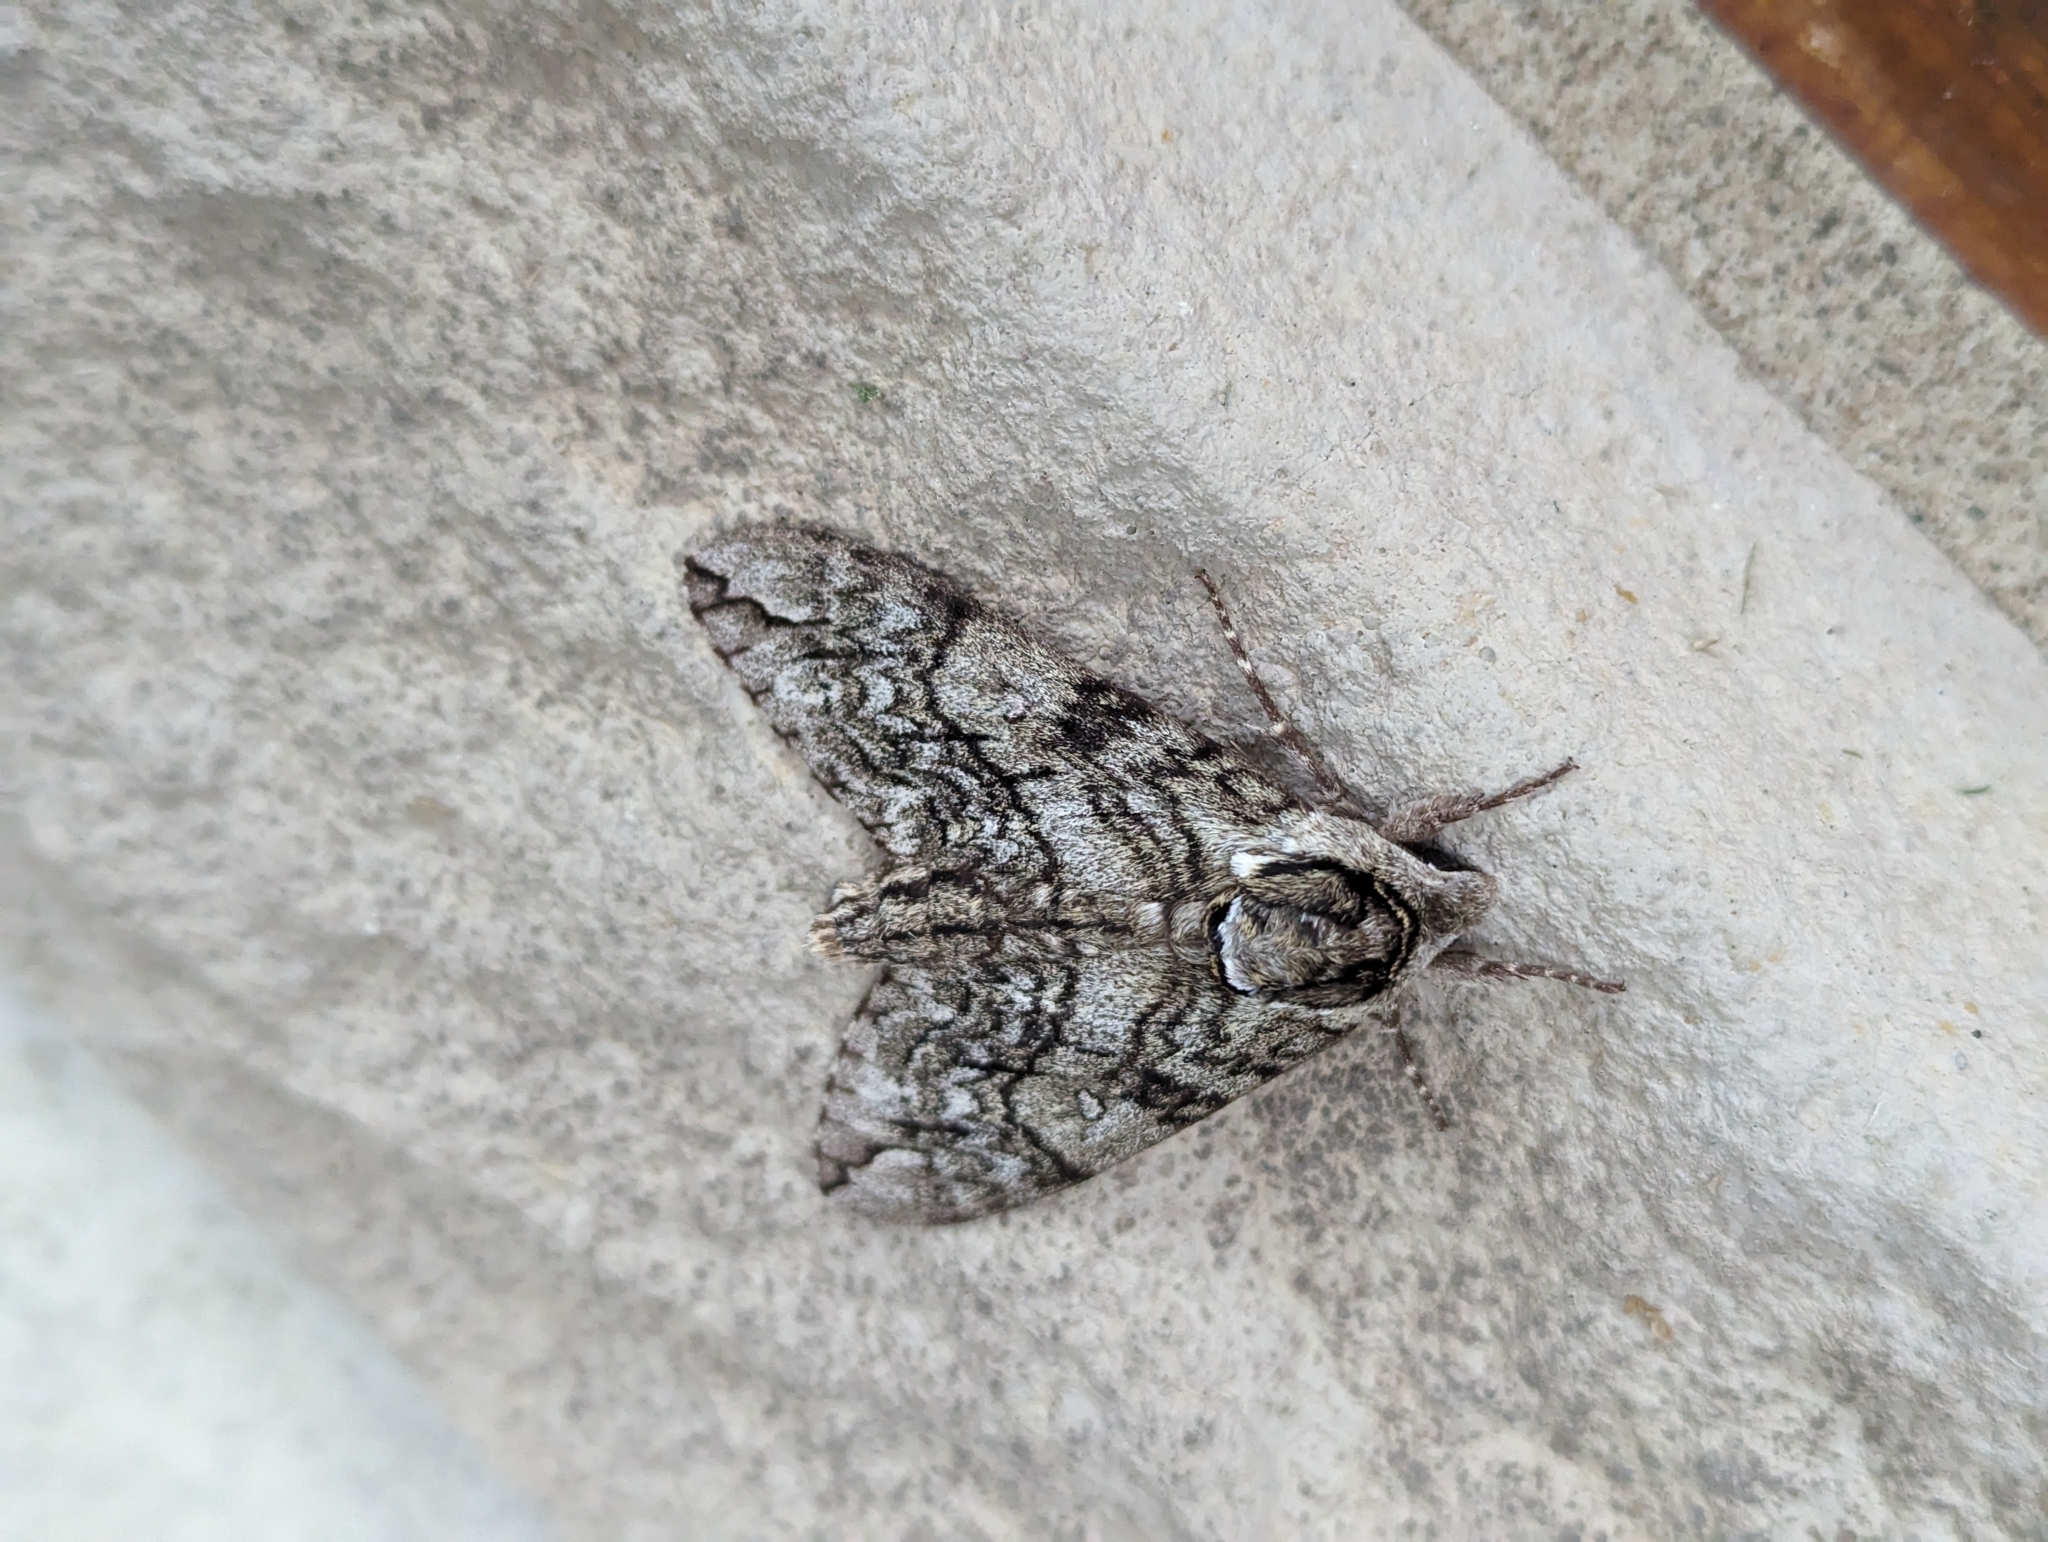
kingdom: Animalia
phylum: Arthropoda
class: Insecta
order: Lepidoptera
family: Sphingidae
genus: Ceratomia
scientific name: Ceratomia undulosa
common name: Waved sphinx
